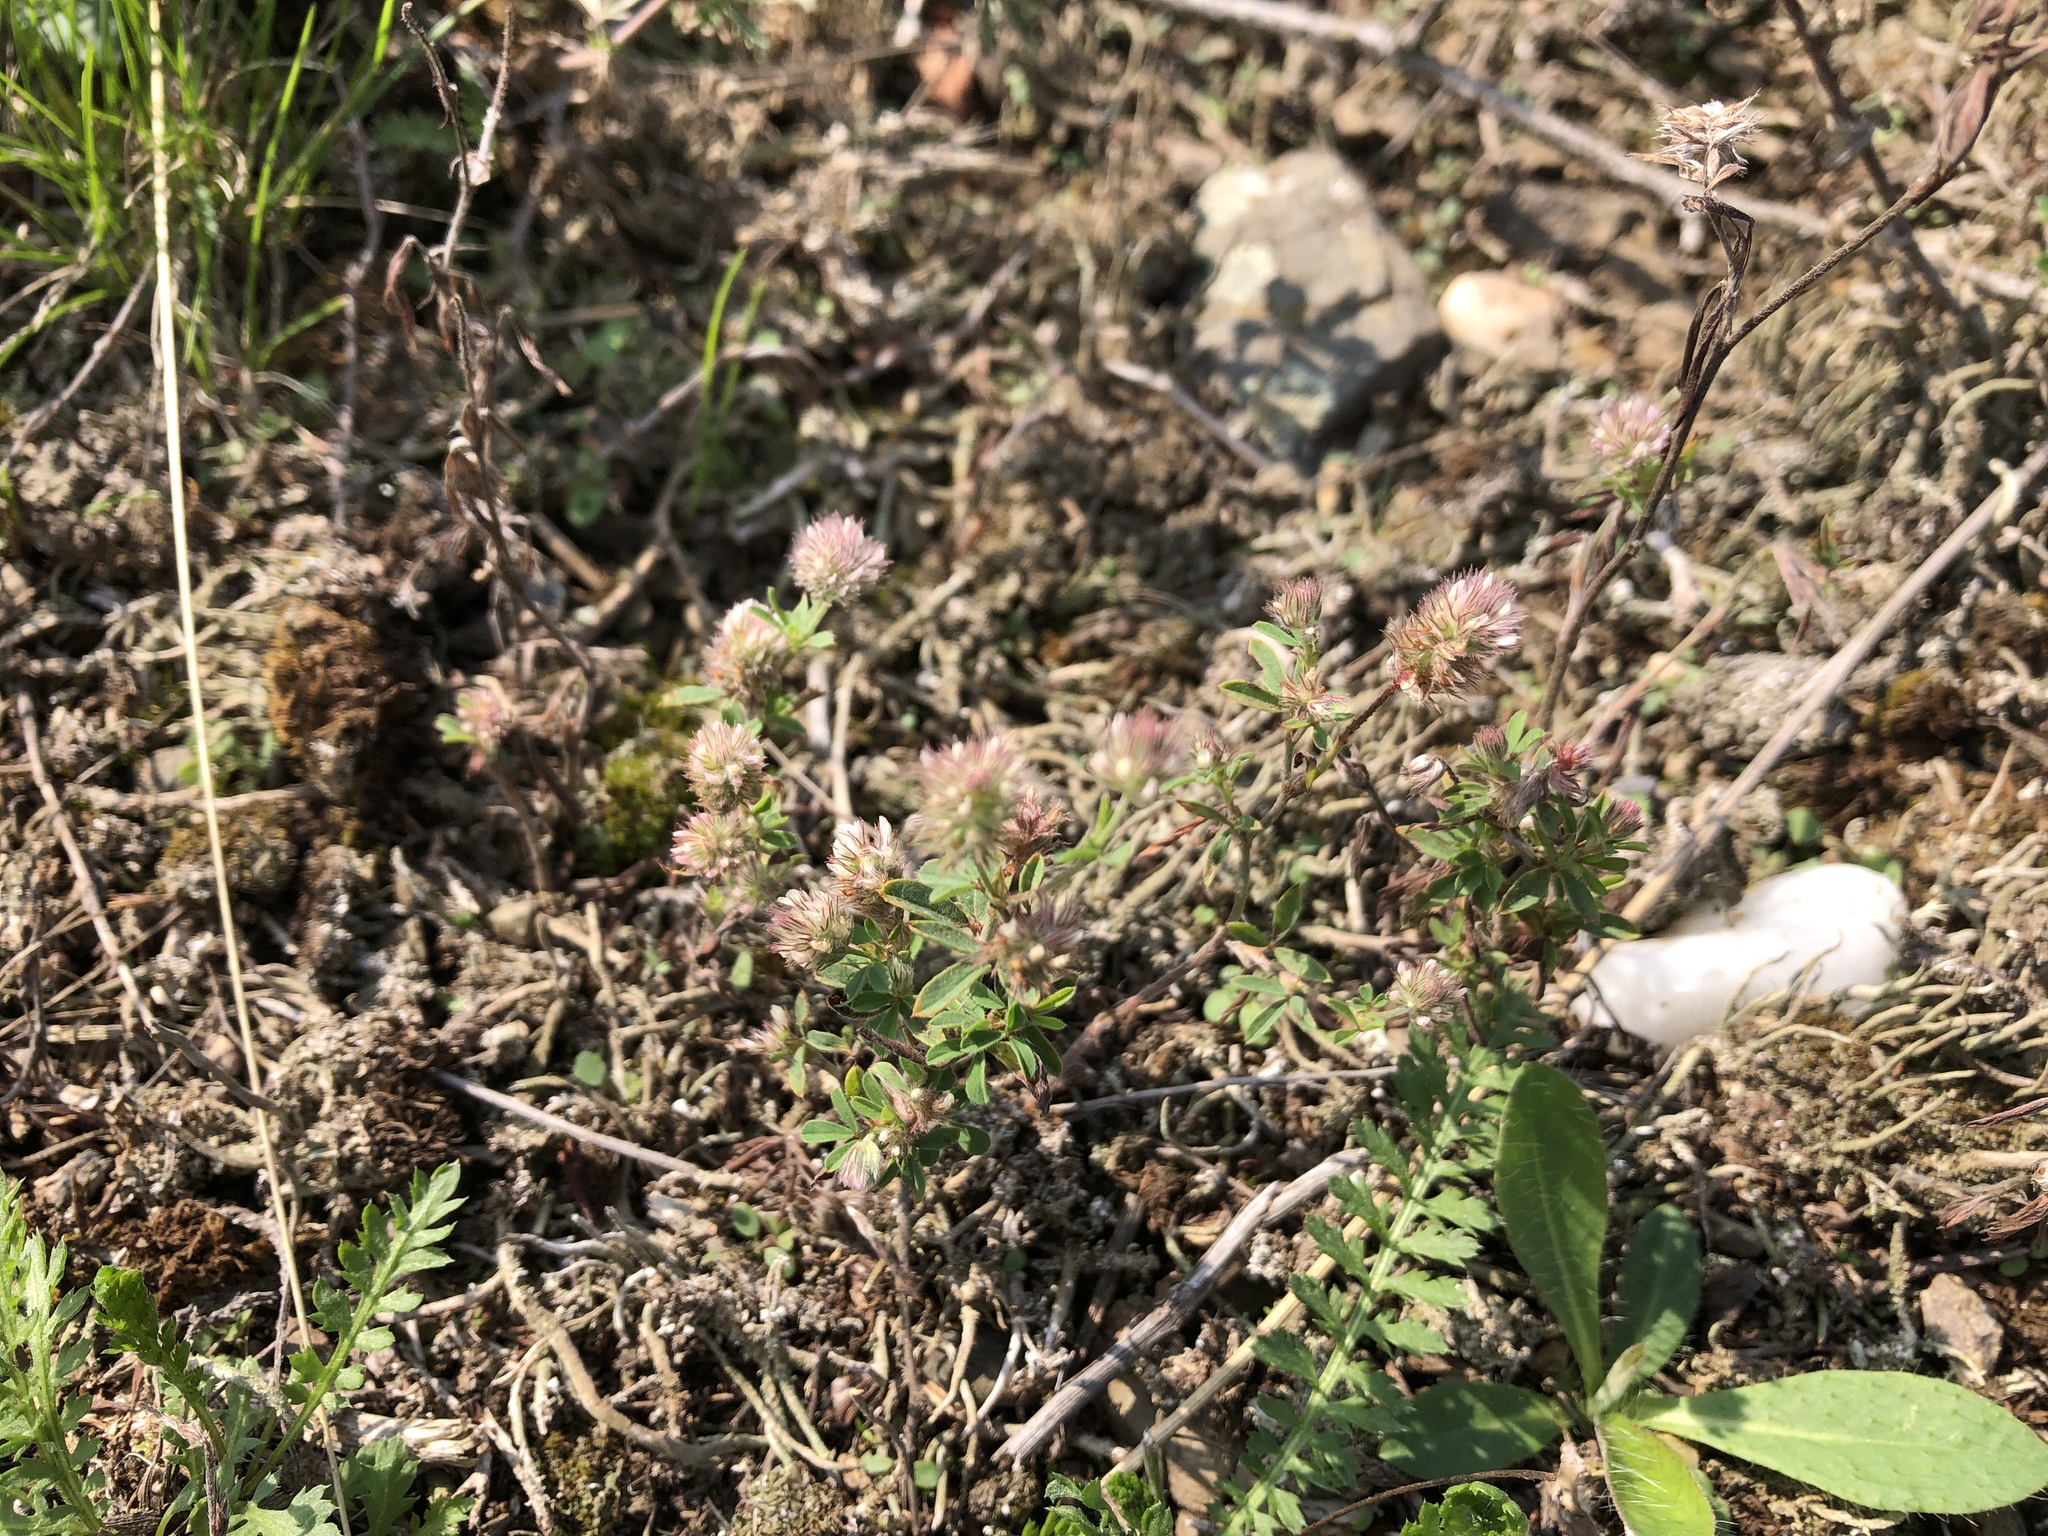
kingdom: Plantae
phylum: Tracheophyta
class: Magnoliopsida
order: Fabales
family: Fabaceae
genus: Trifolium
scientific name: Trifolium arvense
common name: Hare's-foot clover
